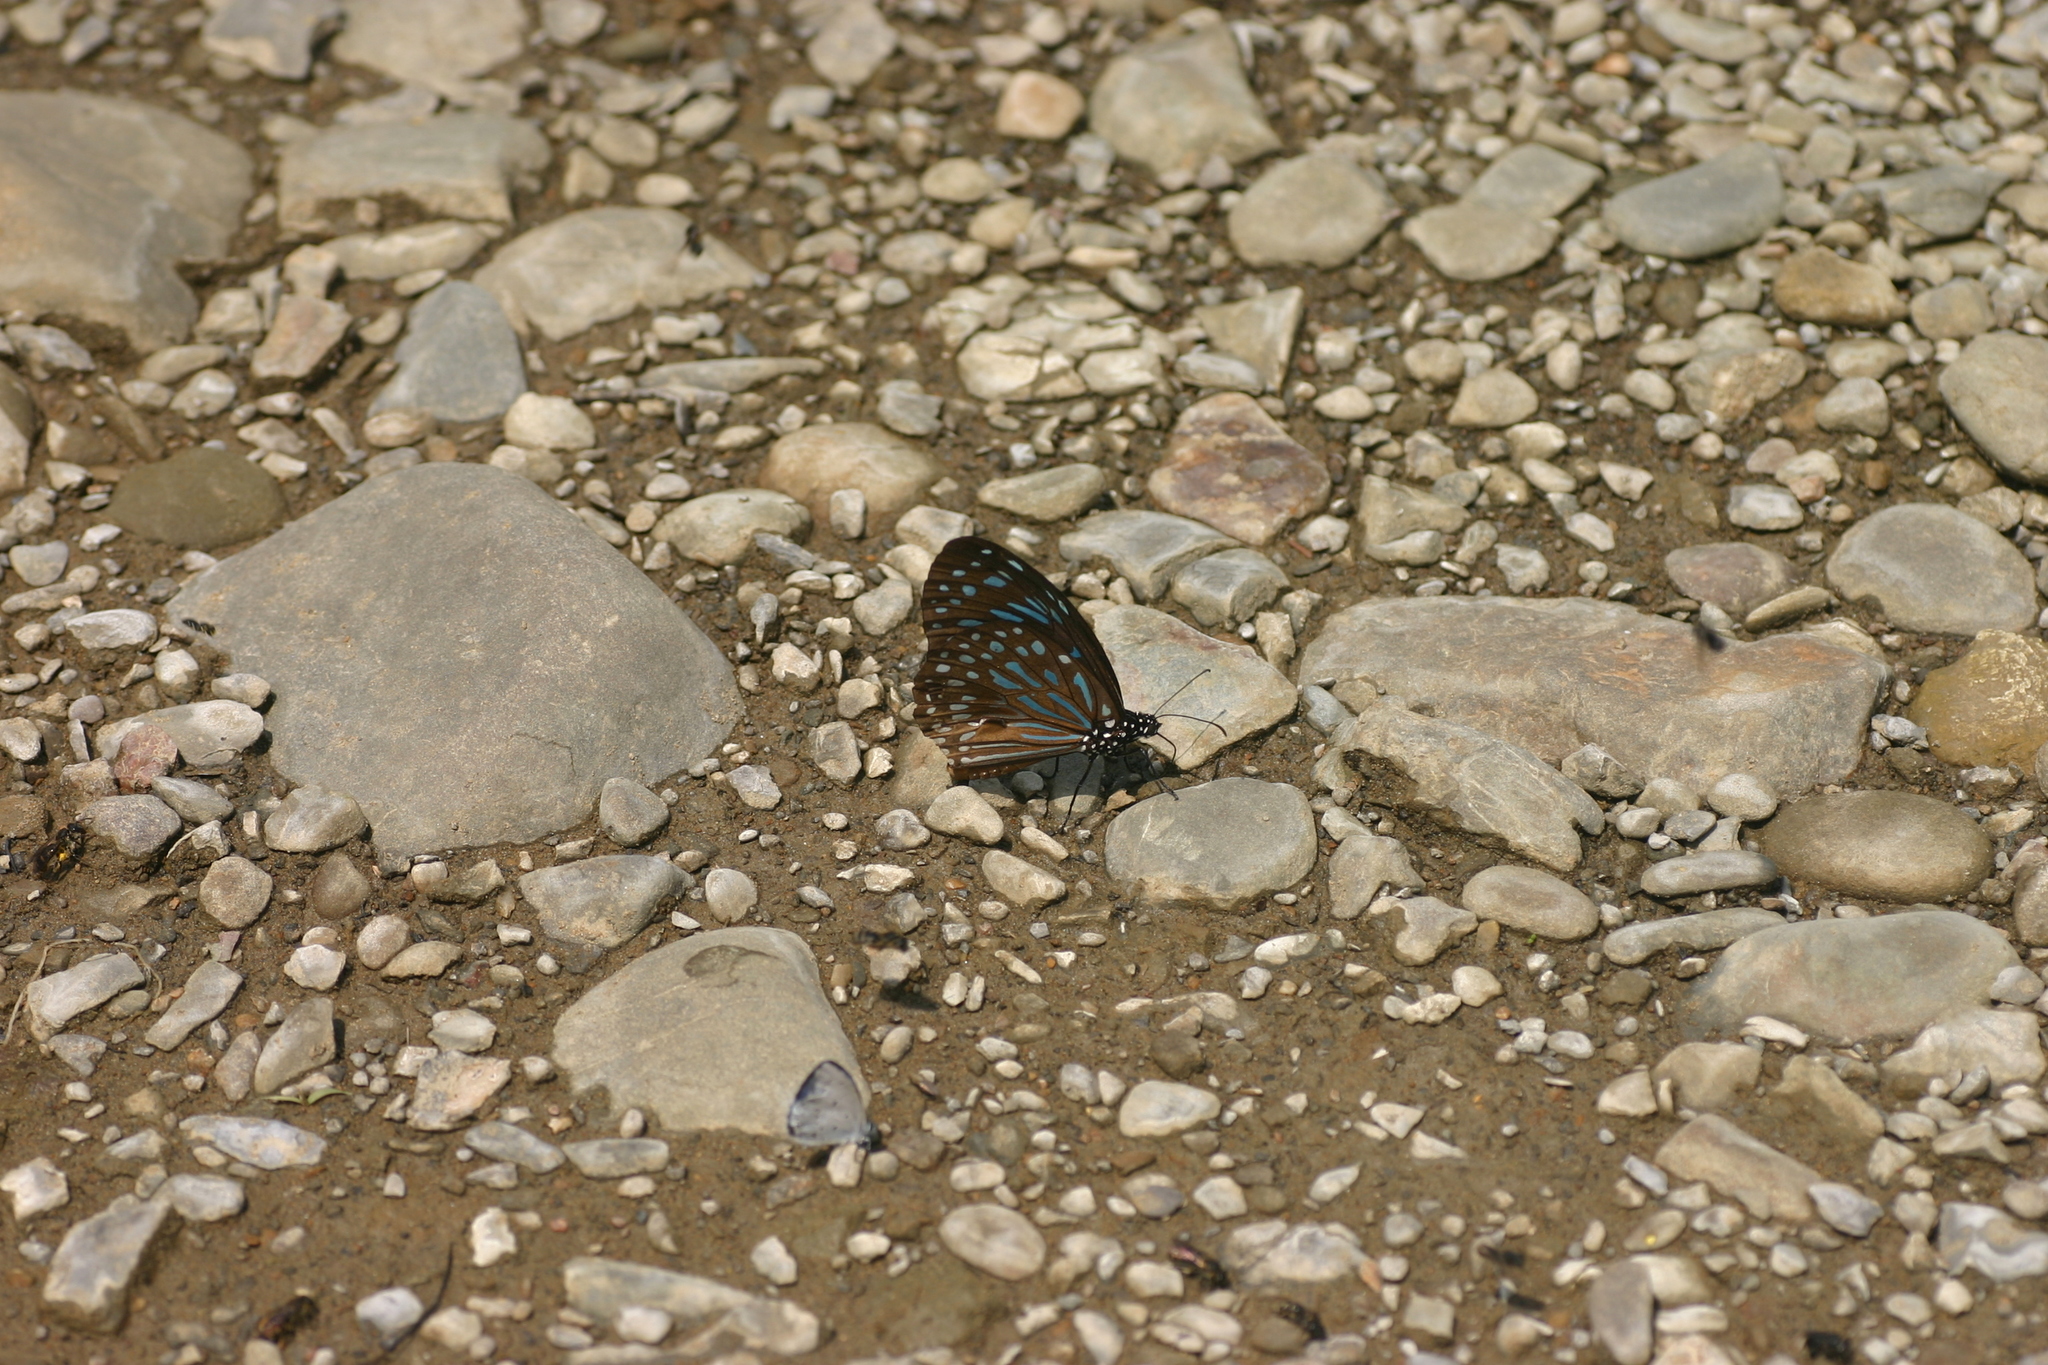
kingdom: Animalia
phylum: Arthropoda
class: Insecta
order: Lepidoptera
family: Nymphalidae
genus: Tirumala
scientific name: Tirumala septentrionis
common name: Dark blue tiger butterfly
